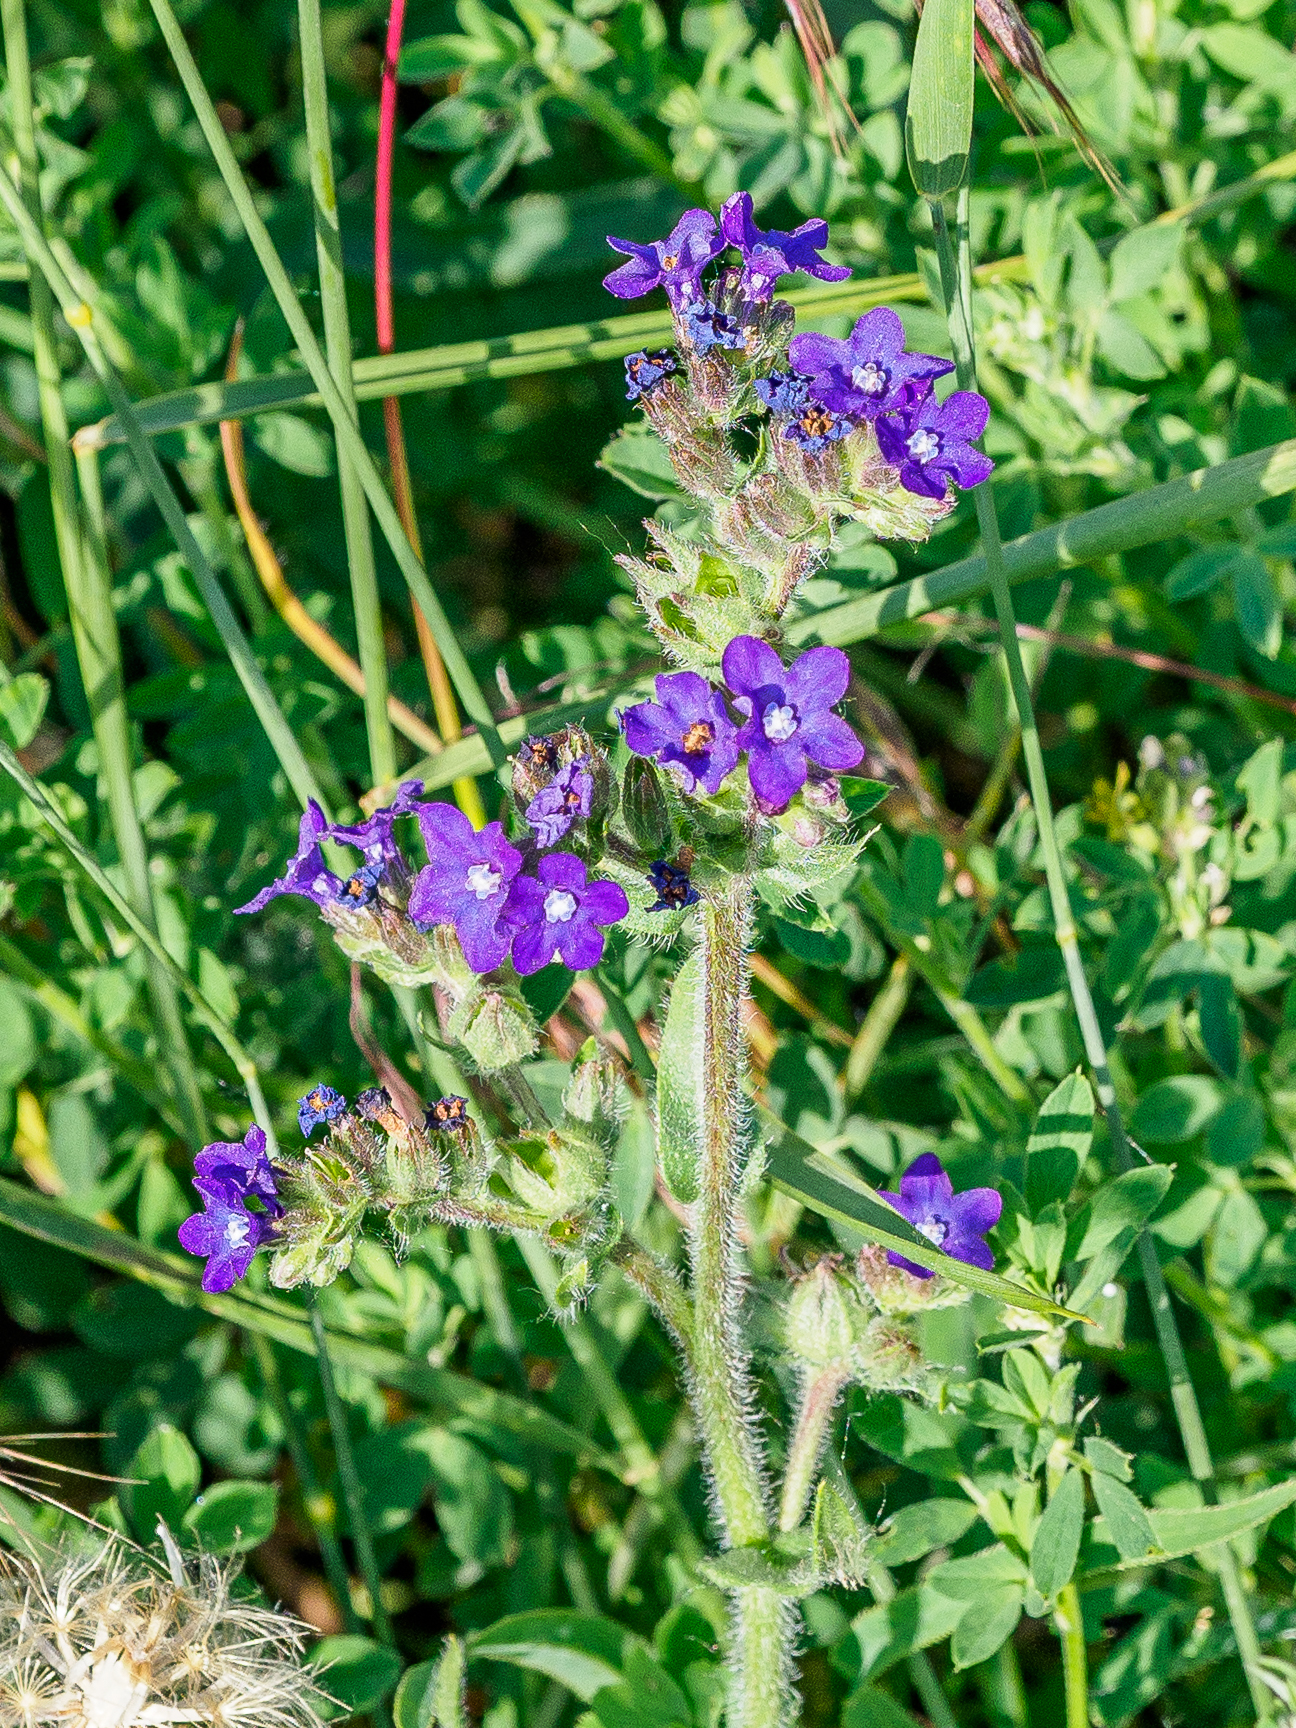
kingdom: Plantae
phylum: Tracheophyta
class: Magnoliopsida
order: Boraginales
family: Boraginaceae
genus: Anchusa
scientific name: Anchusa officinalis
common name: Alkanet
